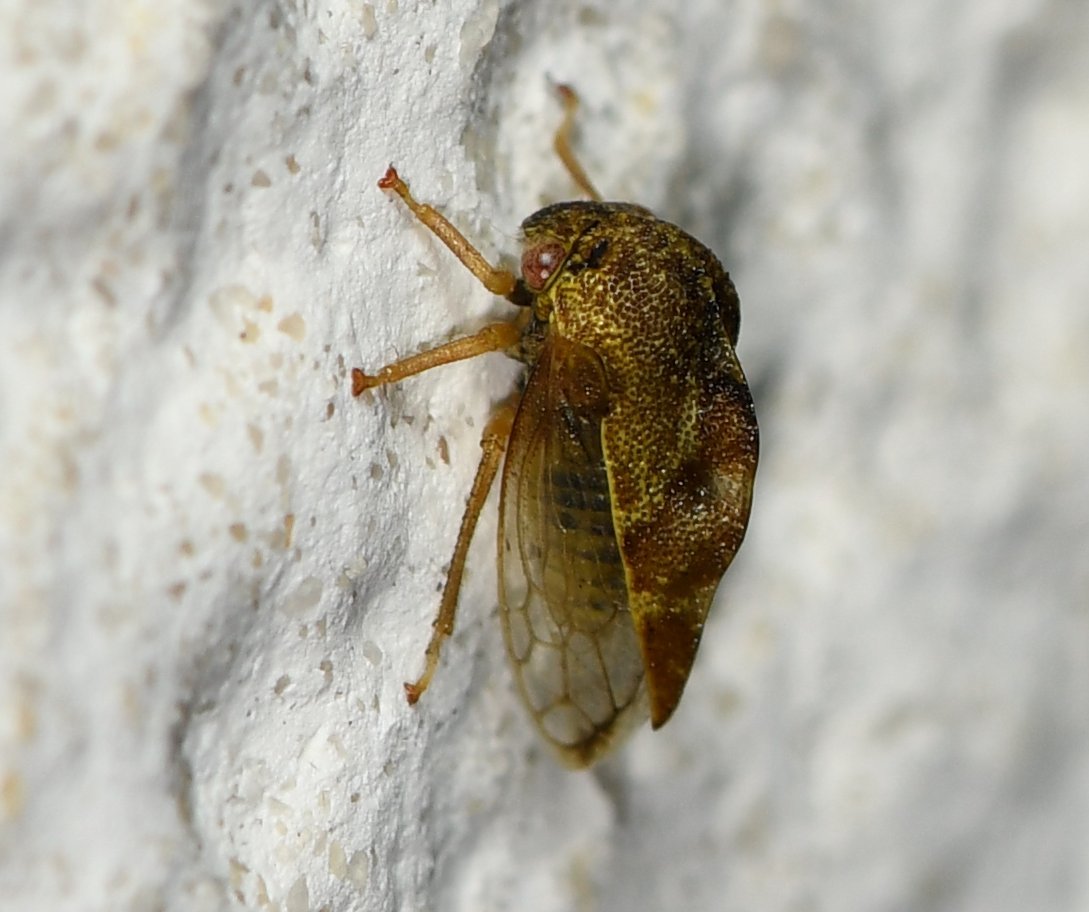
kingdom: Animalia
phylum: Arthropoda
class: Insecta
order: Hemiptera
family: Membracidae
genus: Cyrtolobus
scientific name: Cyrtolobus fenestrata
